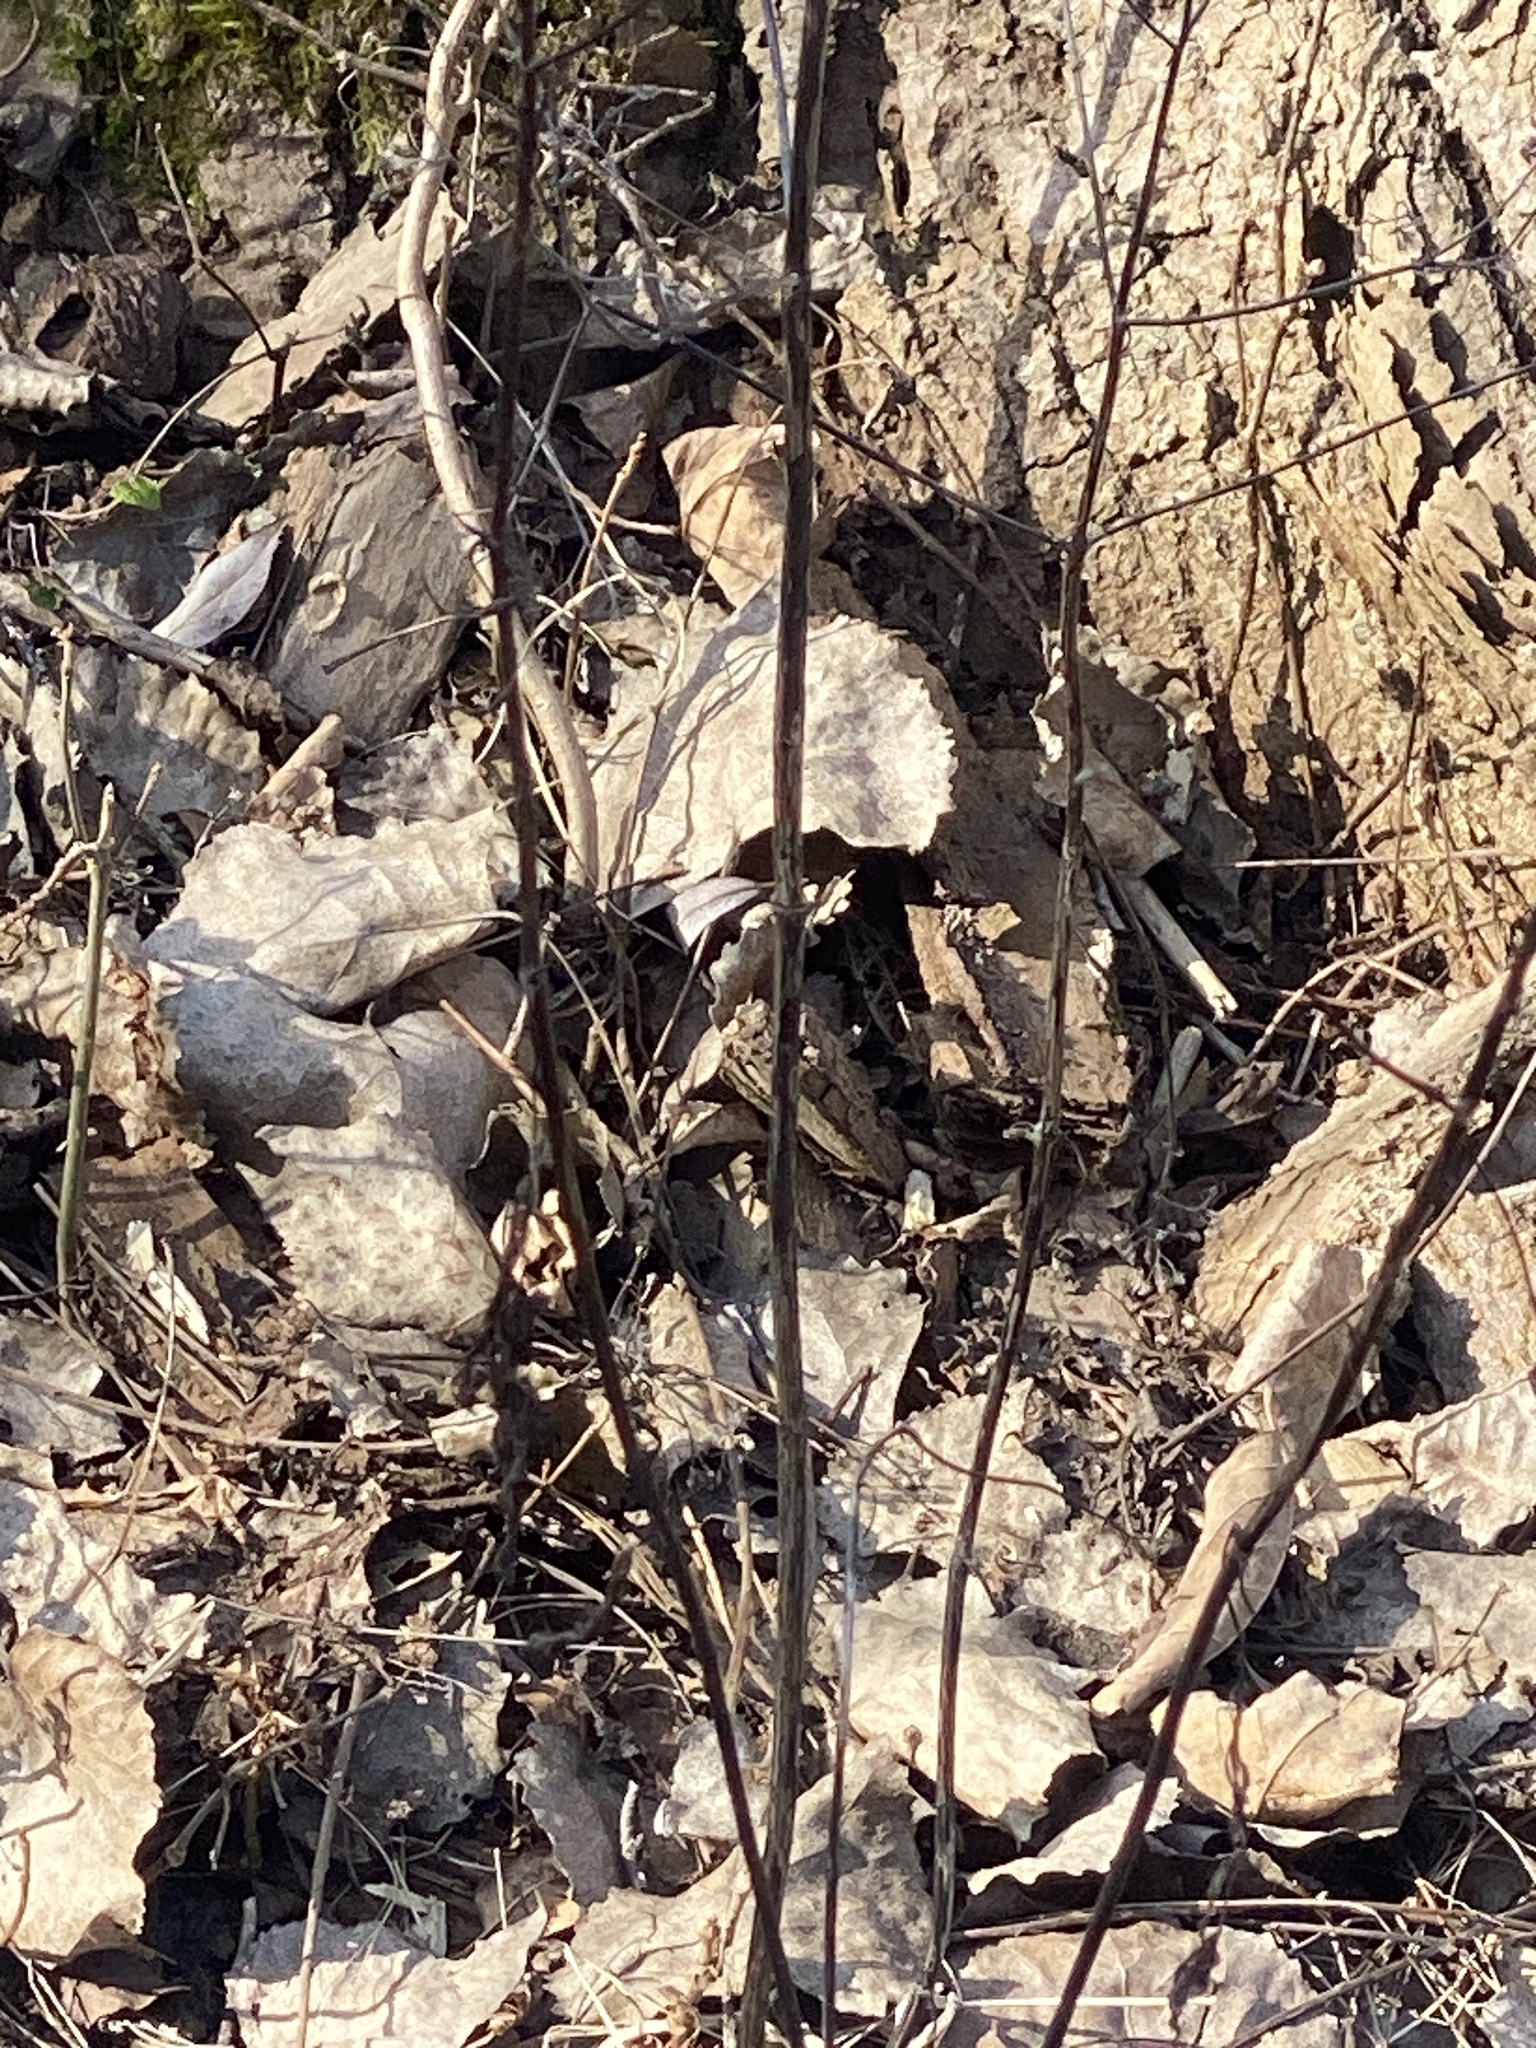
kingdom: Plantae
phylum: Tracheophyta
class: Magnoliopsida
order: Malpighiales
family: Salicaceae
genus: Populus
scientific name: Populus deltoides
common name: Eastern cottonwood
